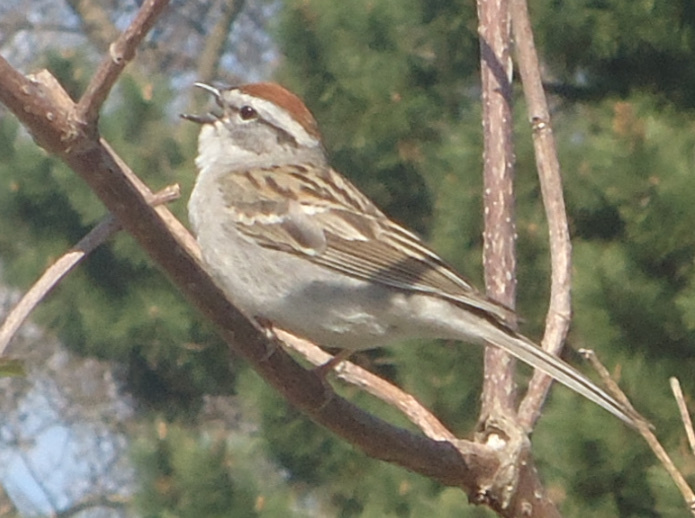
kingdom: Animalia
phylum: Chordata
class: Aves
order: Passeriformes
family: Passerellidae
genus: Spizella
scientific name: Spizella passerina
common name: Chipping sparrow
